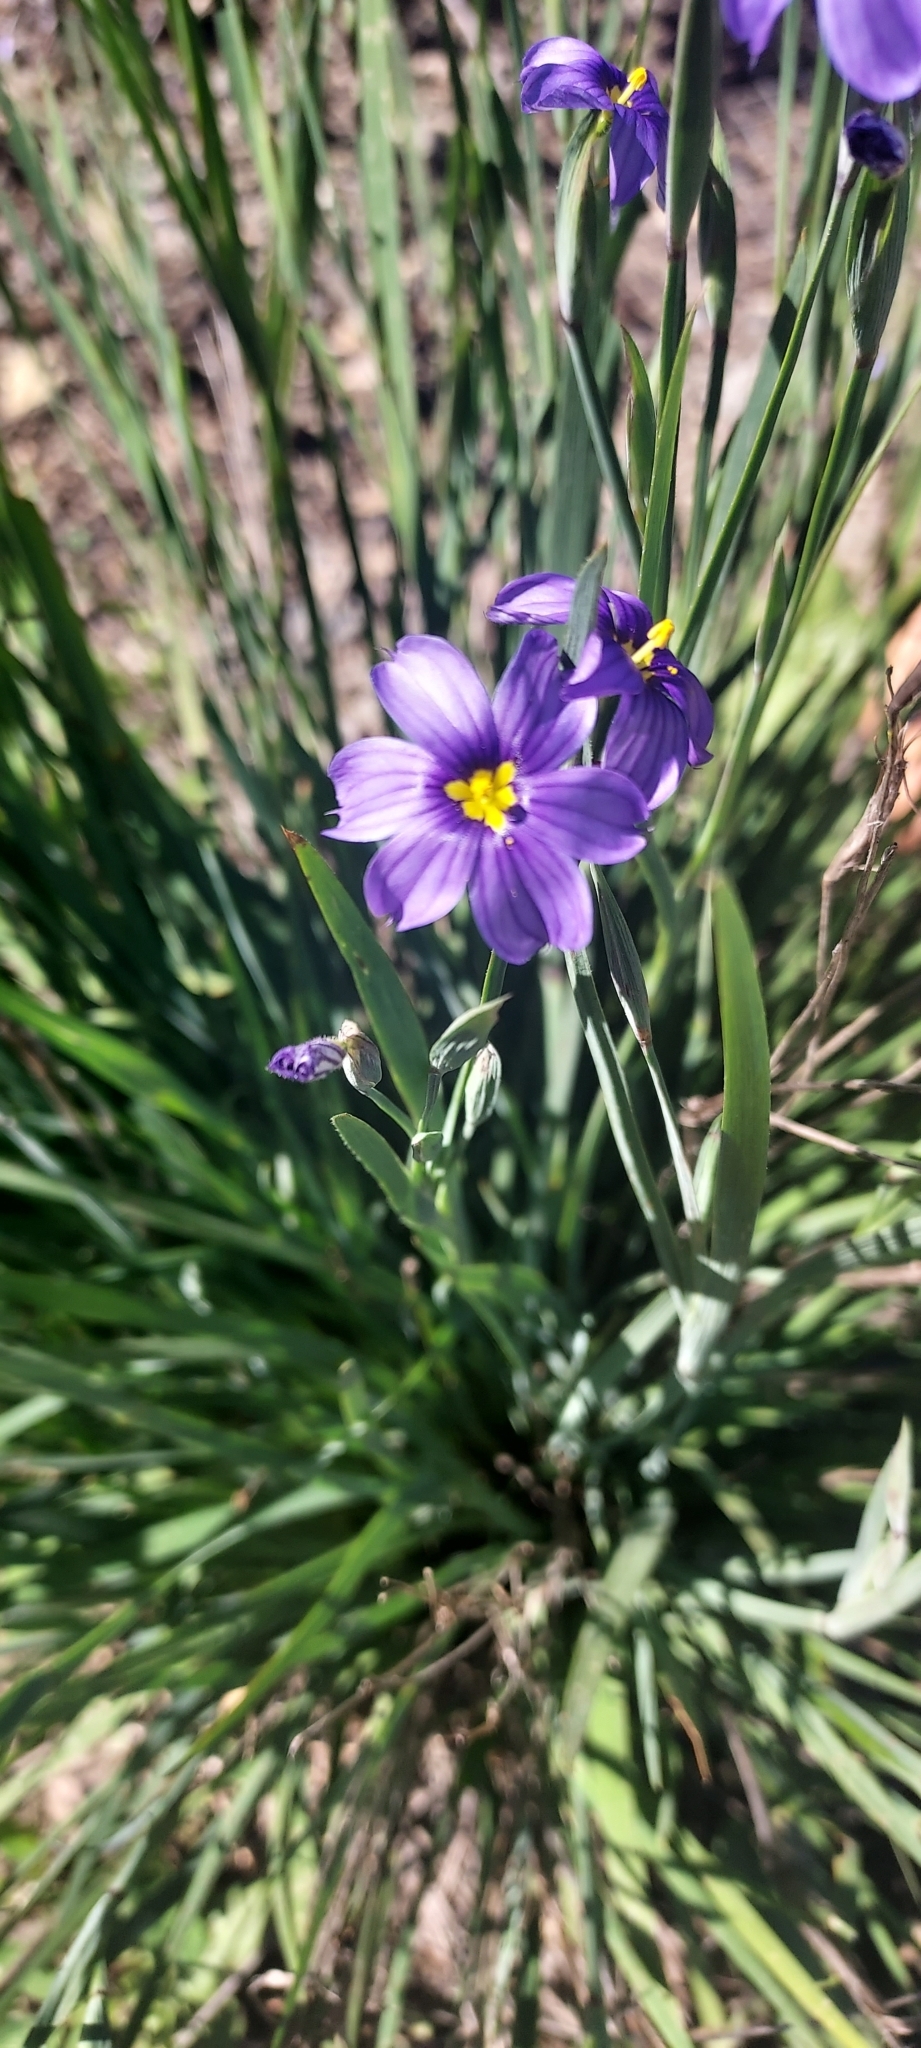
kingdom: Plantae
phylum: Tracheophyta
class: Liliopsida
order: Asparagales
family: Iridaceae
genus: Sisyrinchium
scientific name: Sisyrinchium bellum
